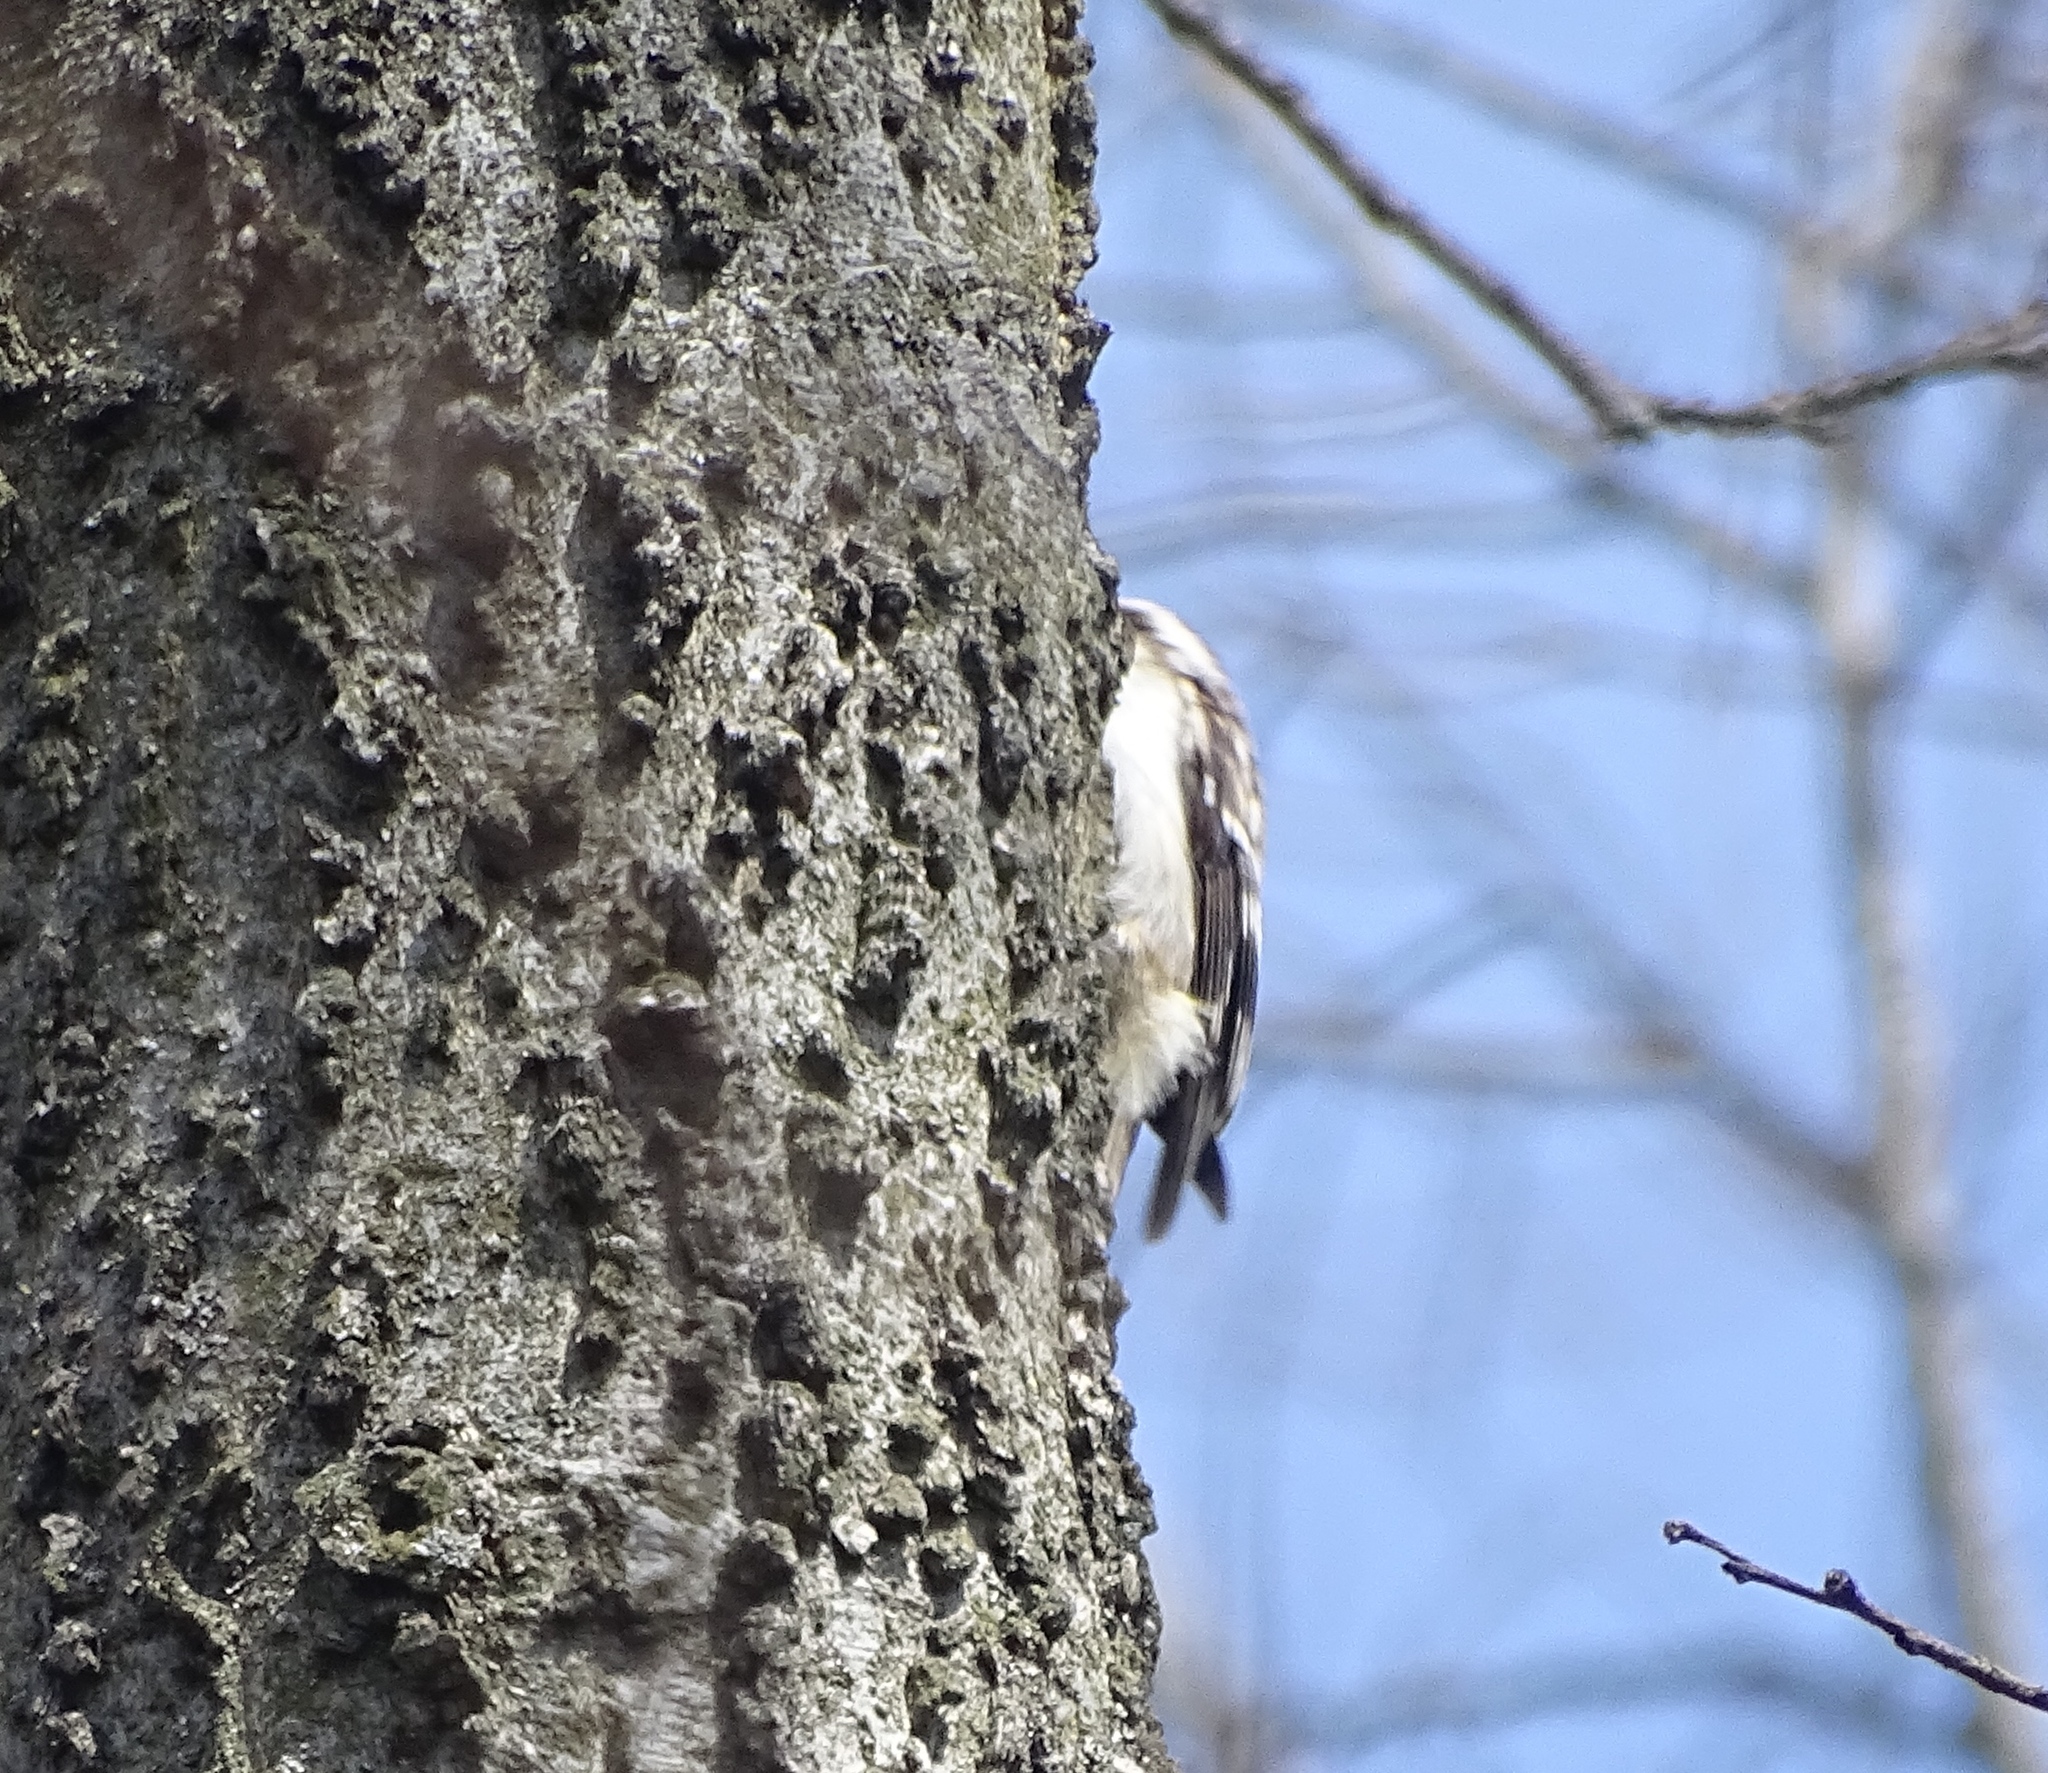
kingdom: Animalia
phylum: Chordata
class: Aves
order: Passeriformes
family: Certhiidae
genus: Certhia
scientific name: Certhia americana
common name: Brown creeper
